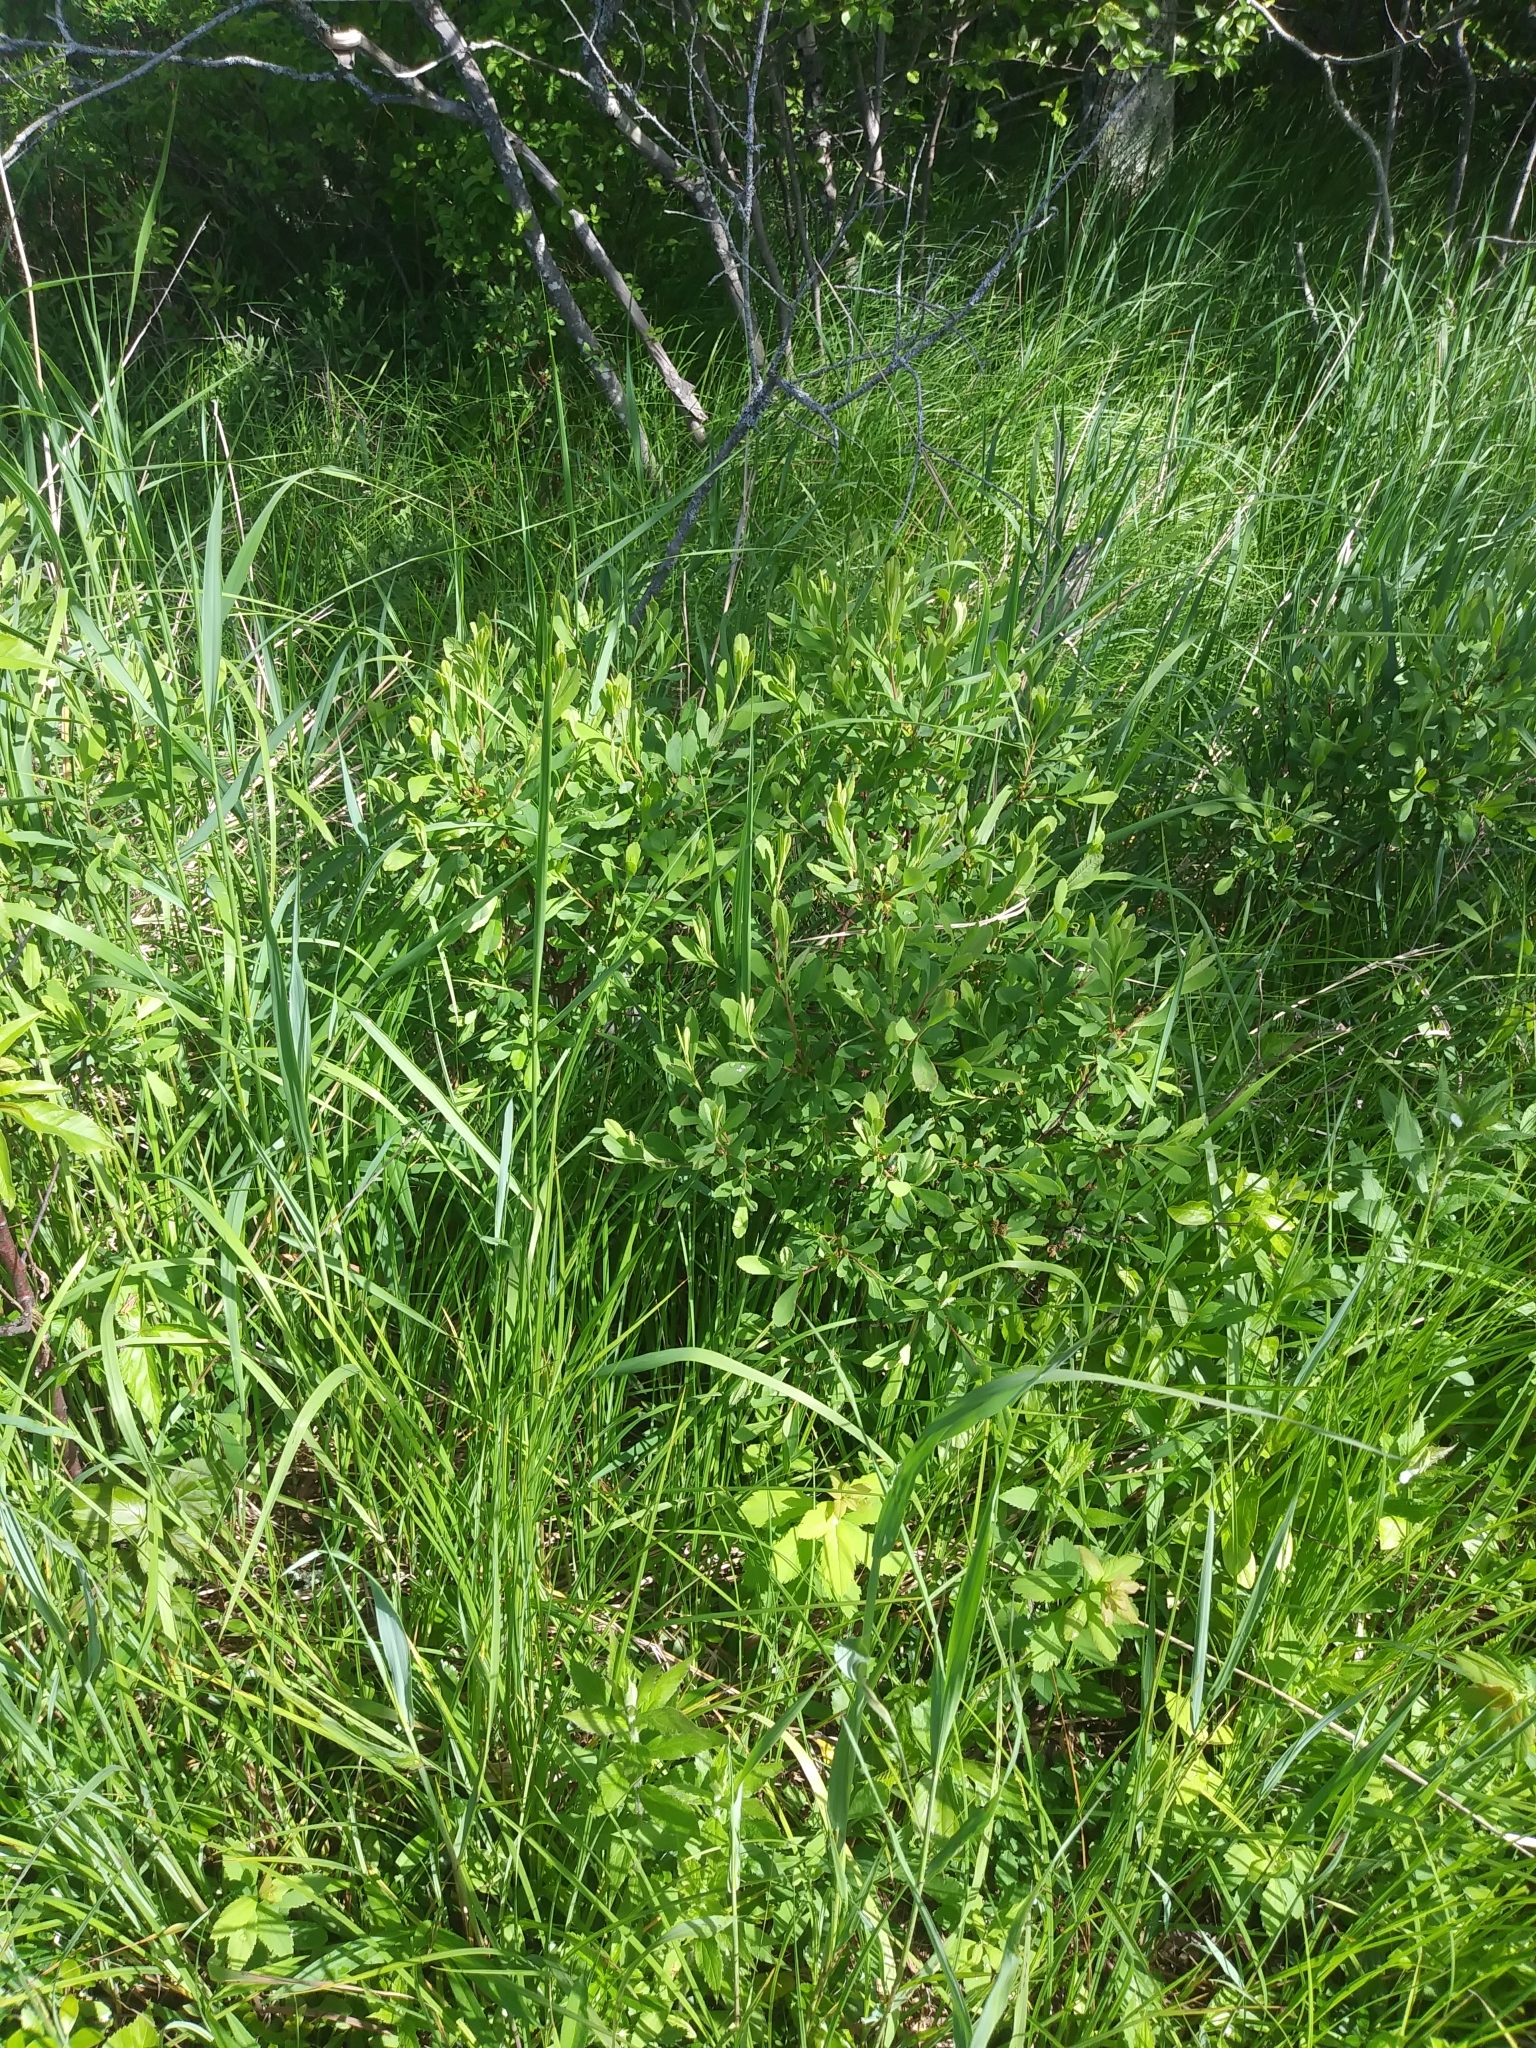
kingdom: Plantae
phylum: Tracheophyta
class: Magnoliopsida
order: Fagales
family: Myricaceae
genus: Myrica
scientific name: Myrica gale
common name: Sweet gale
